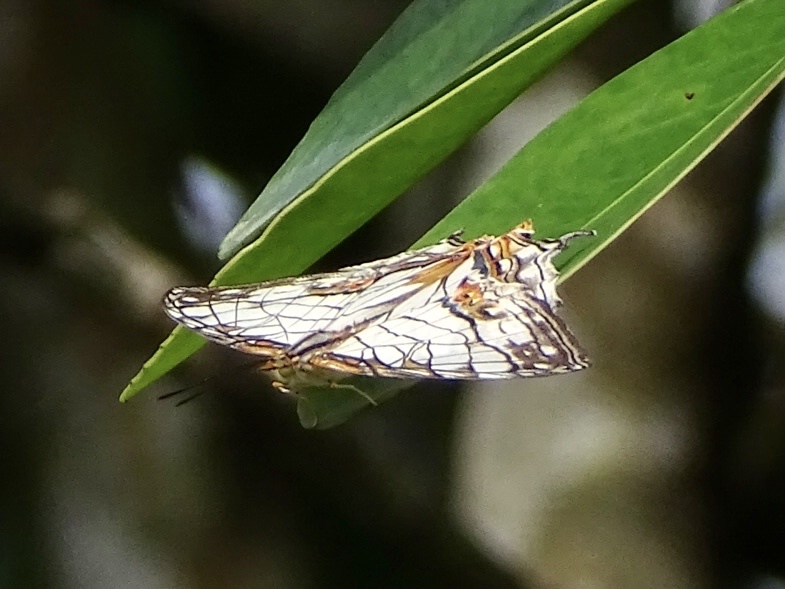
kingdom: Animalia
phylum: Arthropoda
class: Insecta
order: Lepidoptera
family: Nymphalidae
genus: Cyrestis
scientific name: Cyrestis thyodamas
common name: Common mapwing
